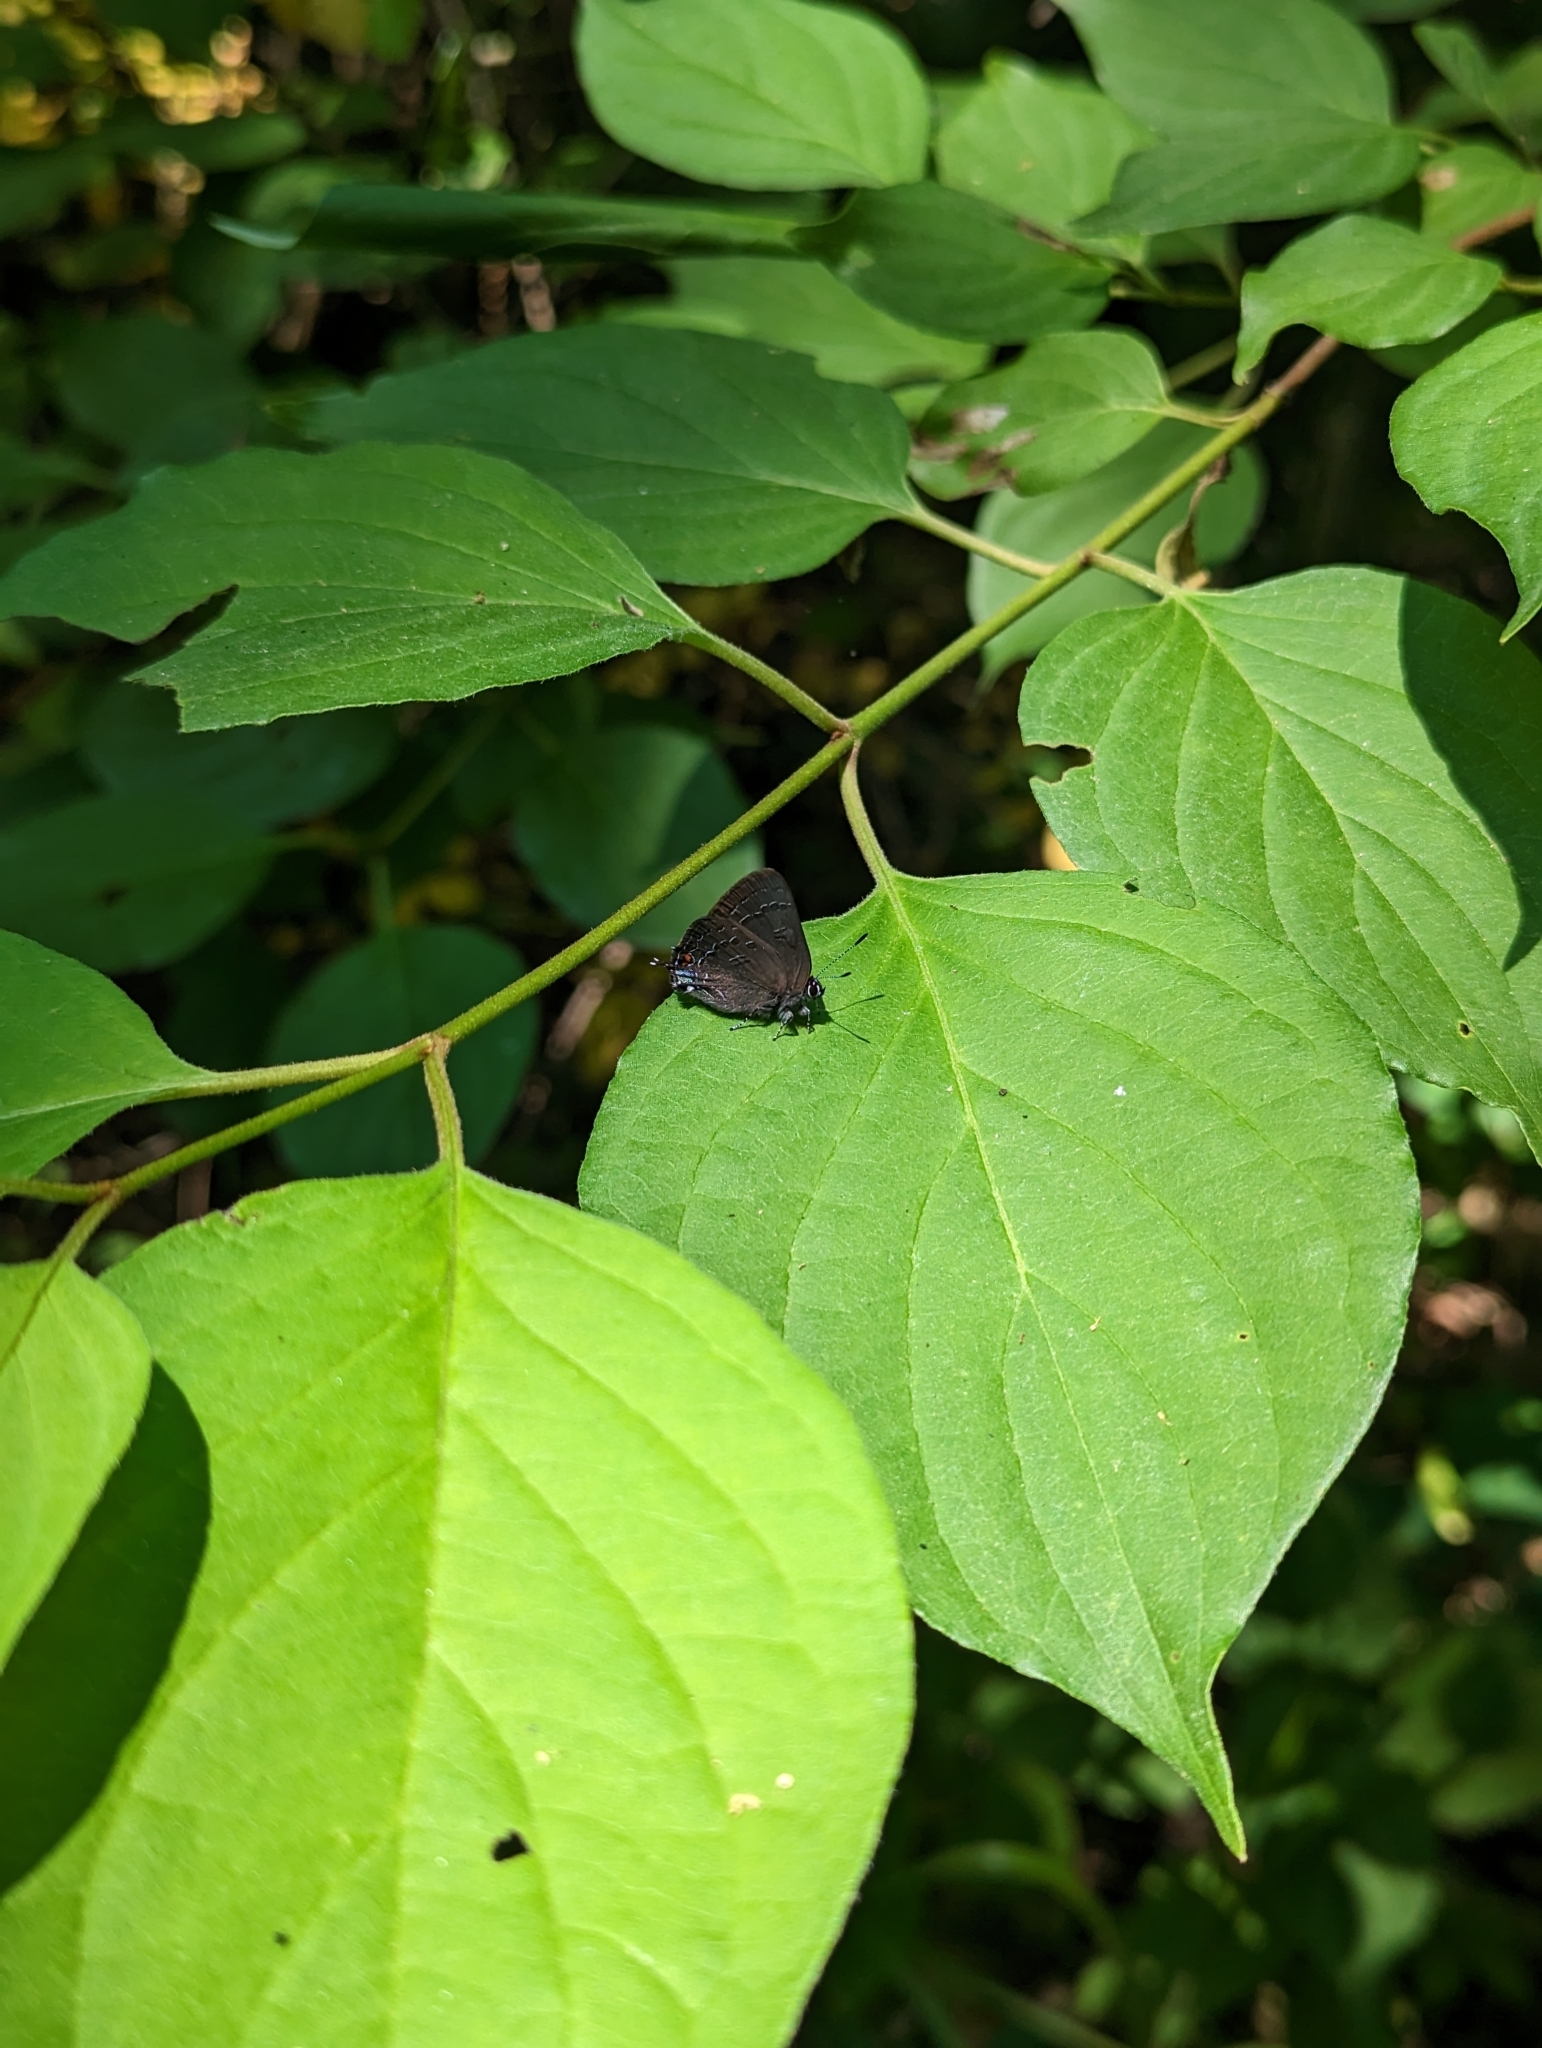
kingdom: Animalia
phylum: Arthropoda
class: Insecta
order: Lepidoptera
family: Lycaenidae
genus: Satyrium
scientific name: Satyrium calanus
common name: Banded hairstreak
